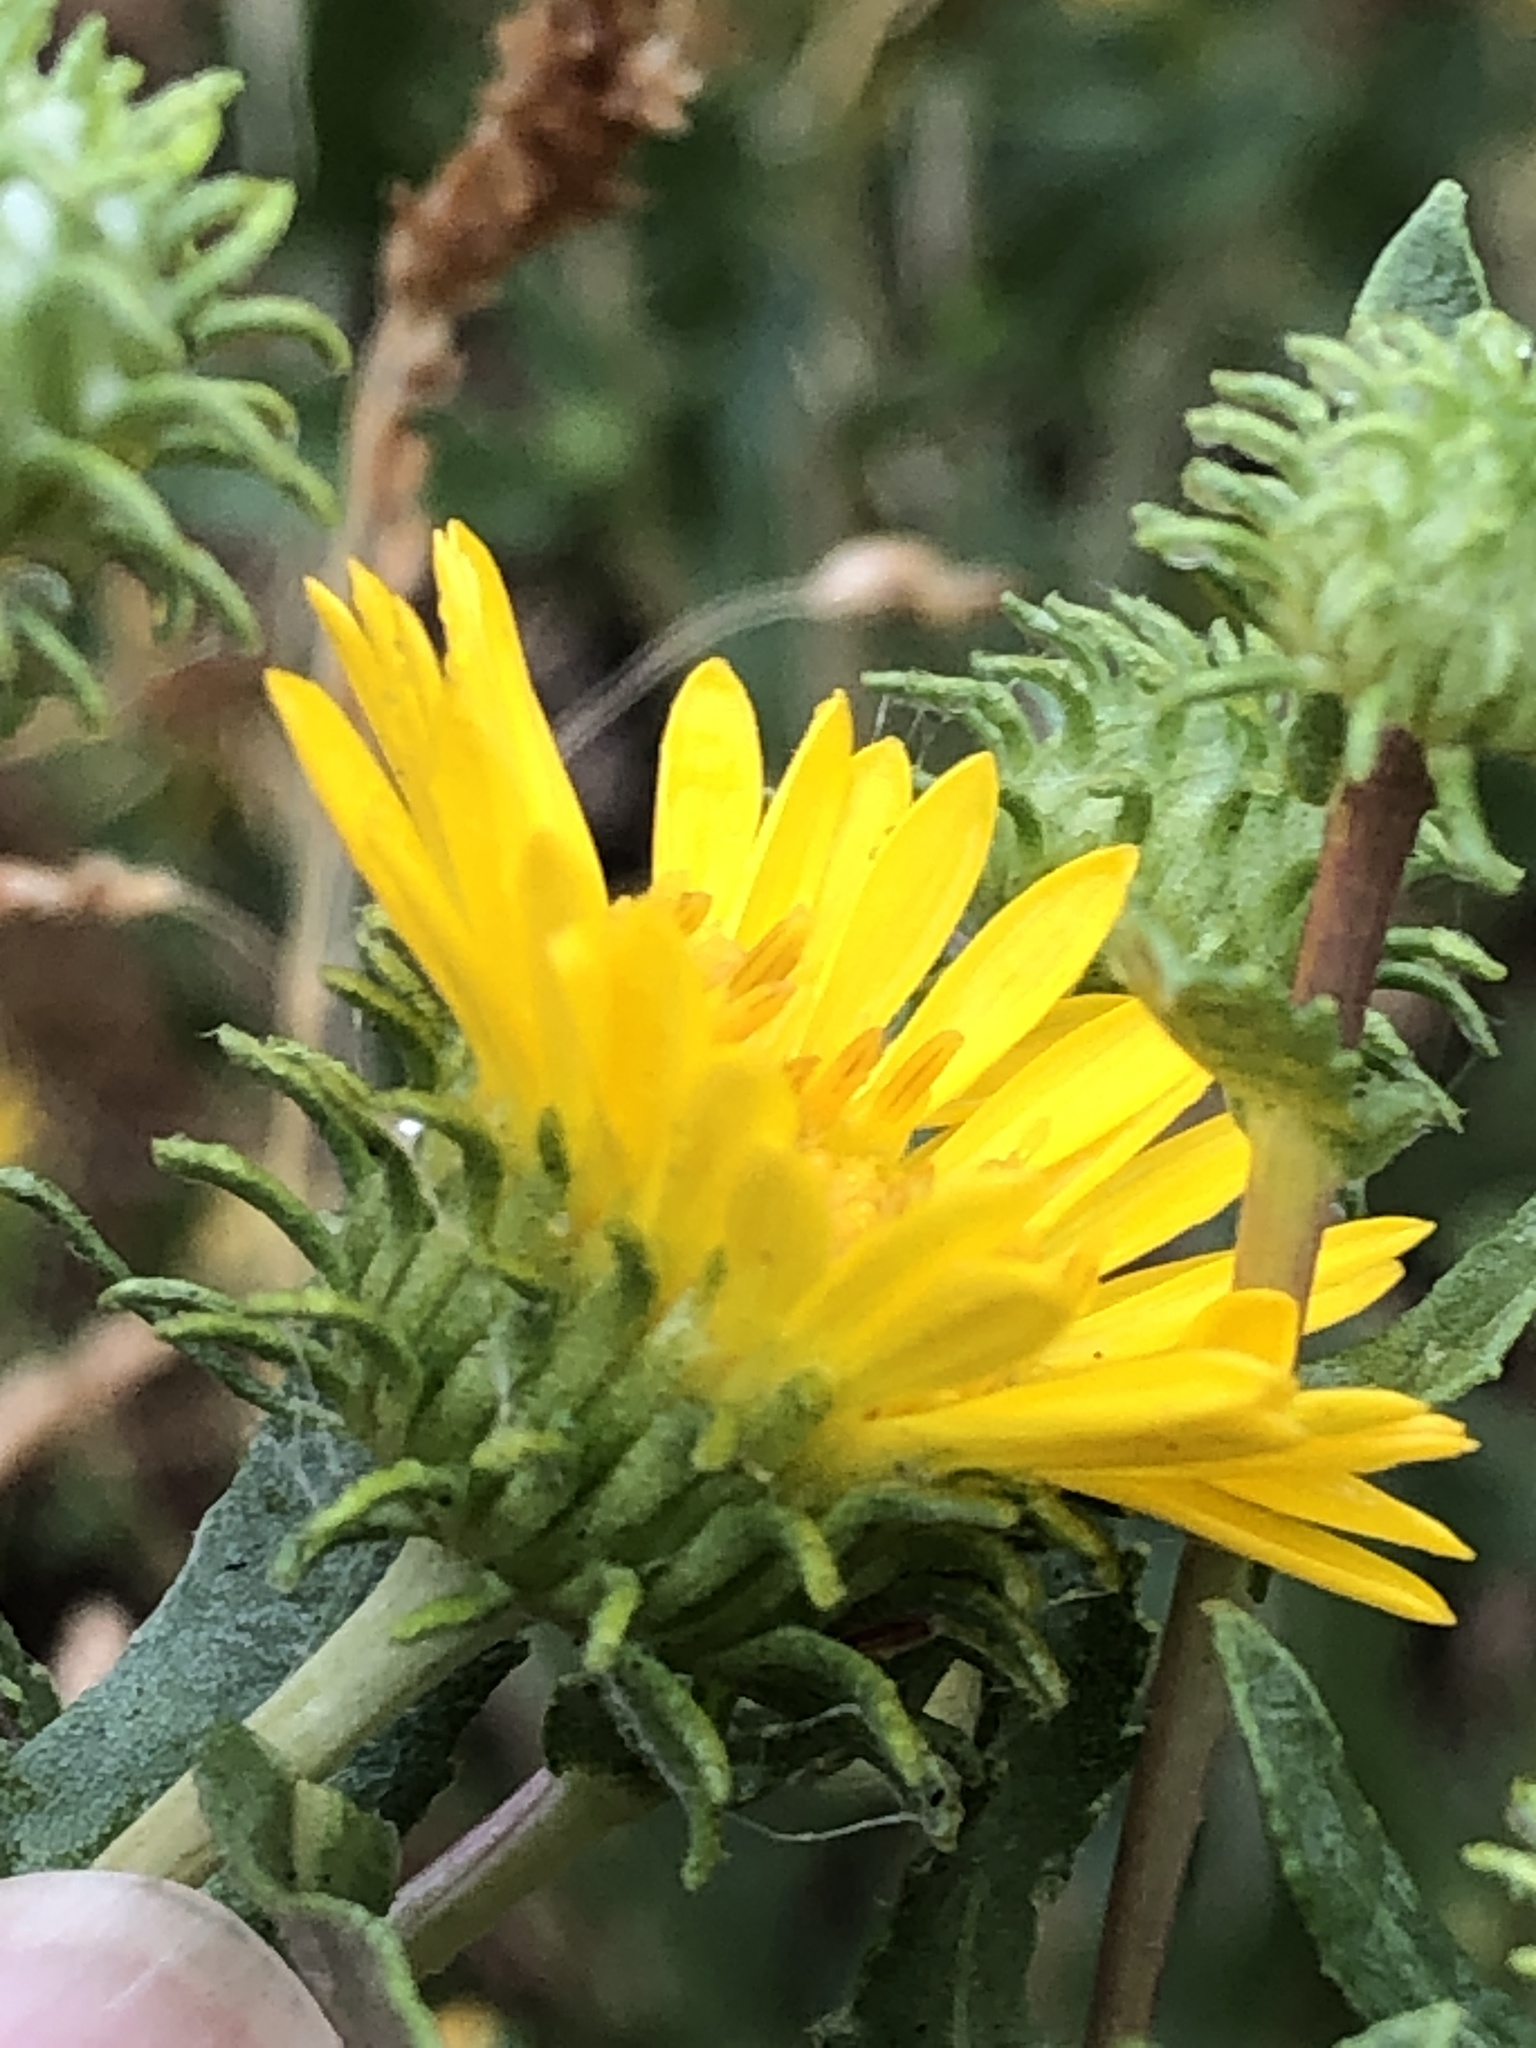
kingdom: Plantae
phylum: Tracheophyta
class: Magnoliopsida
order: Asterales
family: Asteraceae
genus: Grindelia
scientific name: Grindelia squarrosa
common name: Curly-cup gumweed
